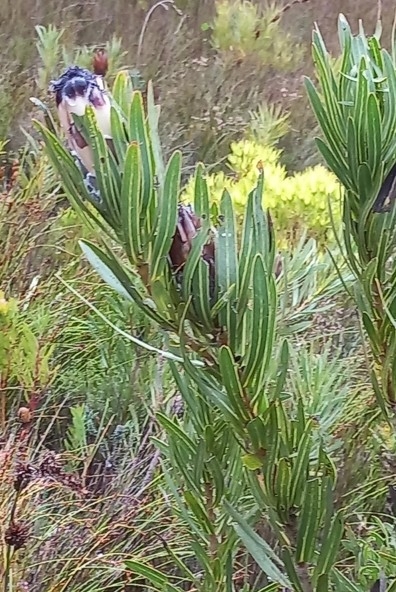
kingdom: Plantae
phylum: Tracheophyta
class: Magnoliopsida
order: Proteales
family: Proteaceae
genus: Protea
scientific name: Protea lepidocarpodendron
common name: Black-bearded protea
